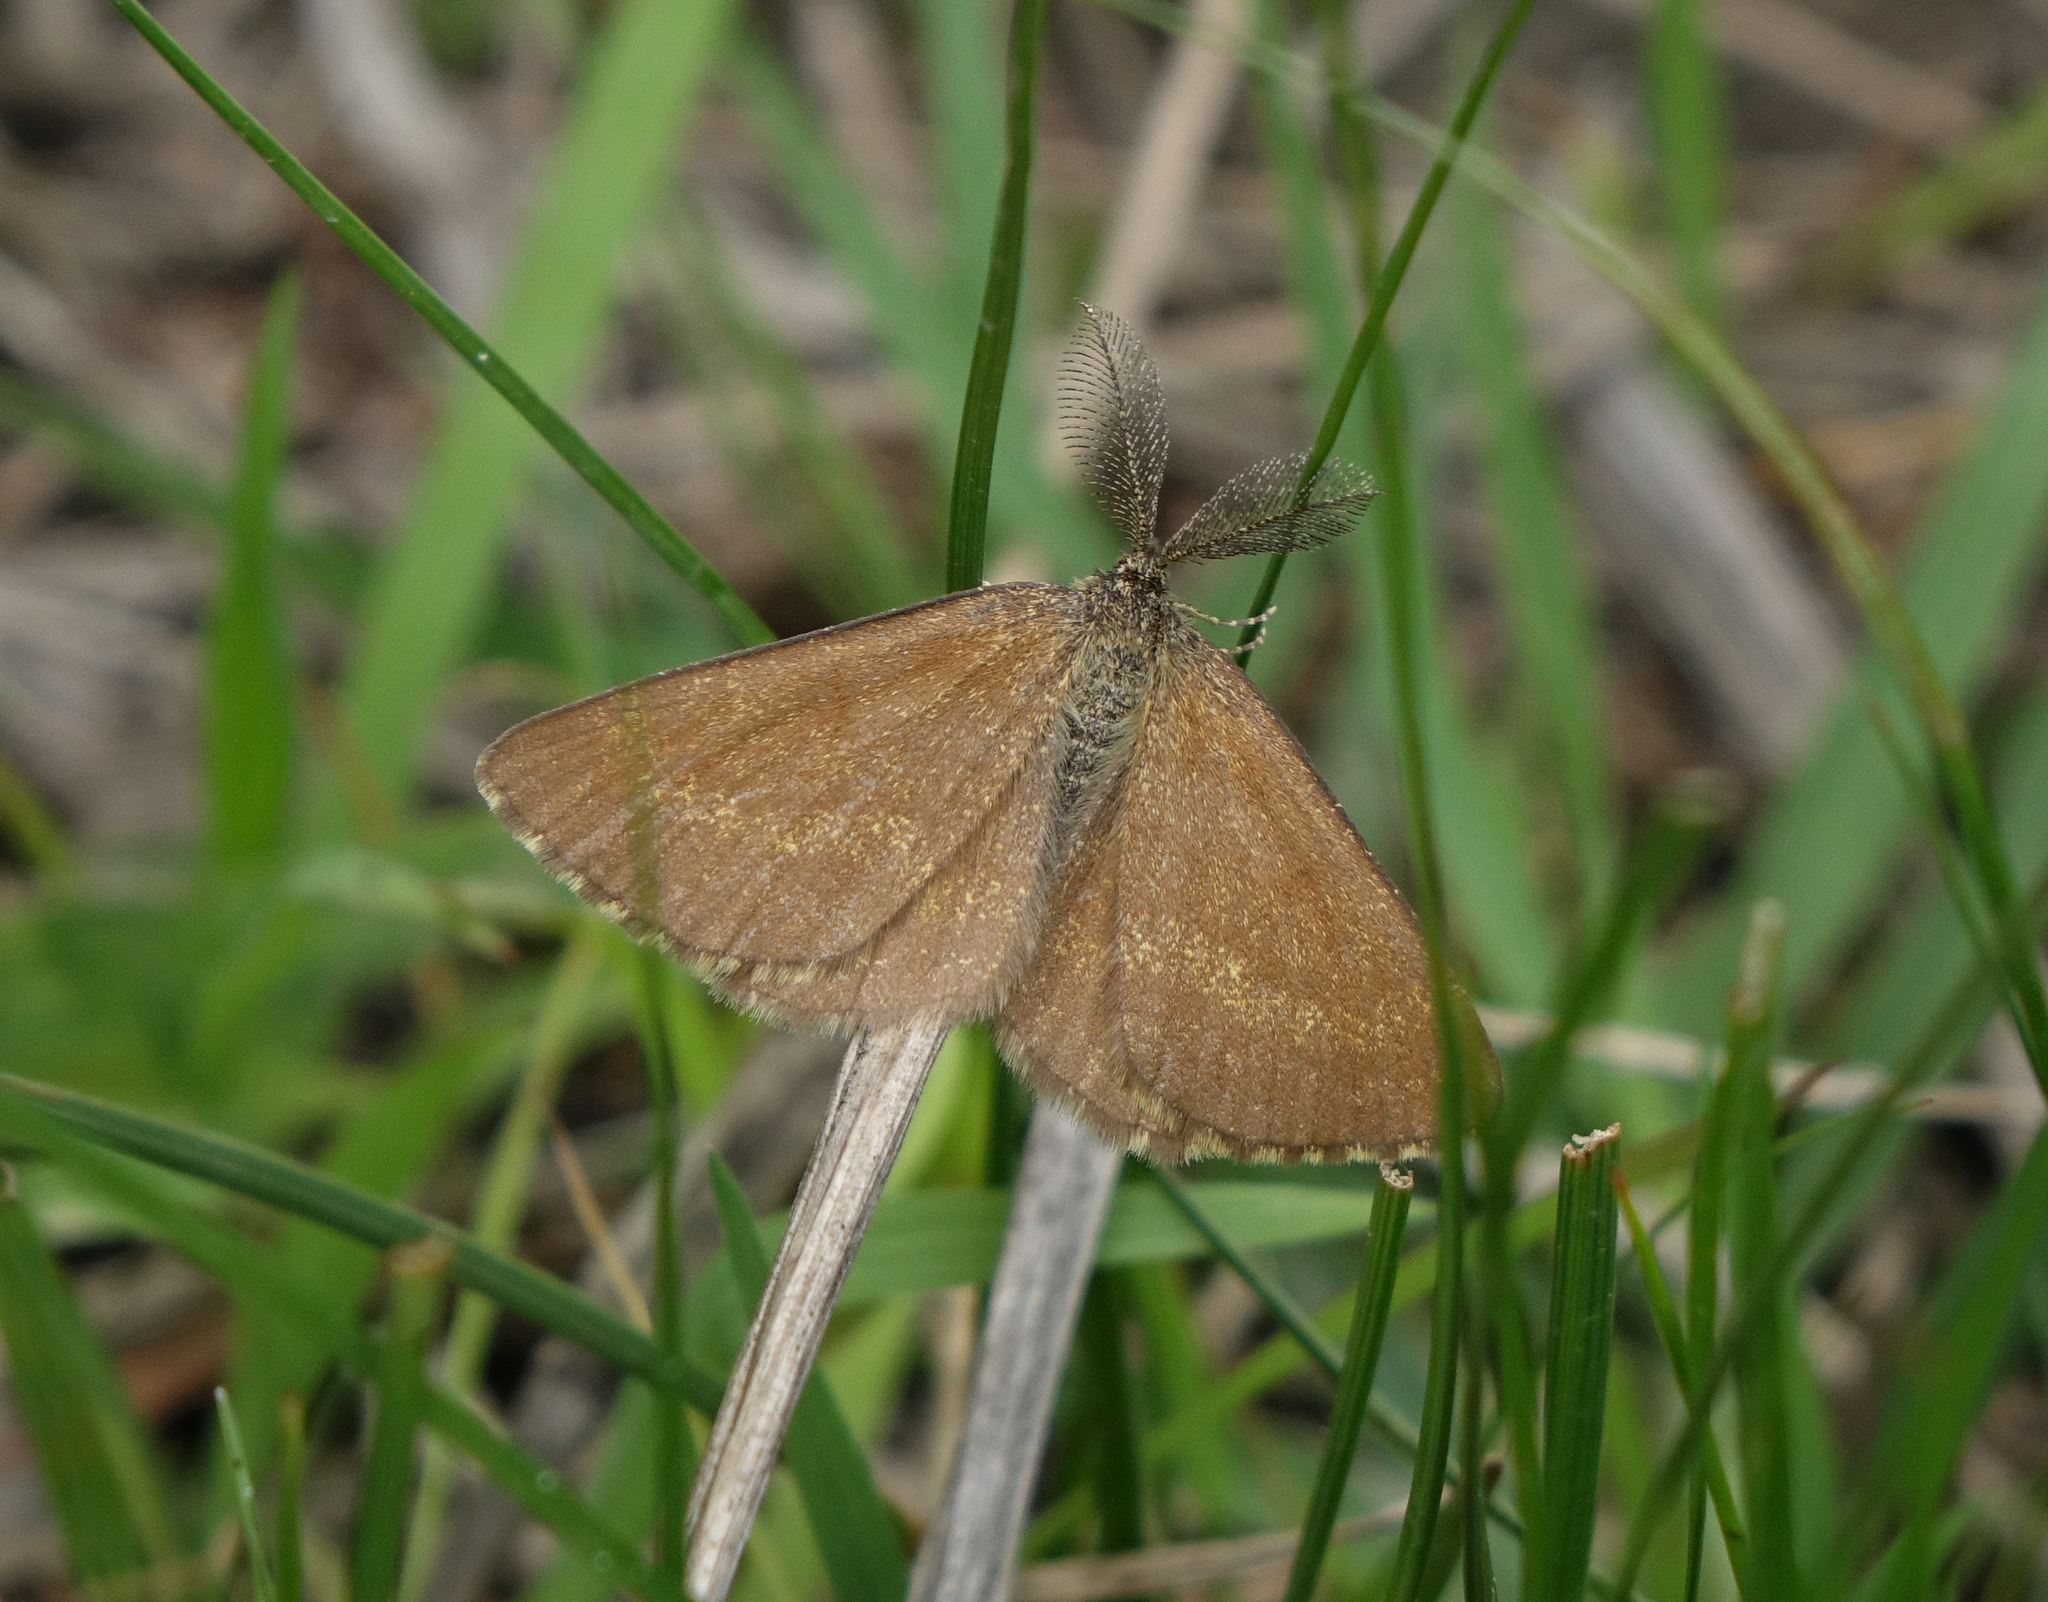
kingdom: Animalia
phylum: Arthropoda
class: Insecta
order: Lepidoptera
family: Geometridae
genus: Ematurga
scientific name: Ematurga atomaria
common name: Common heath
